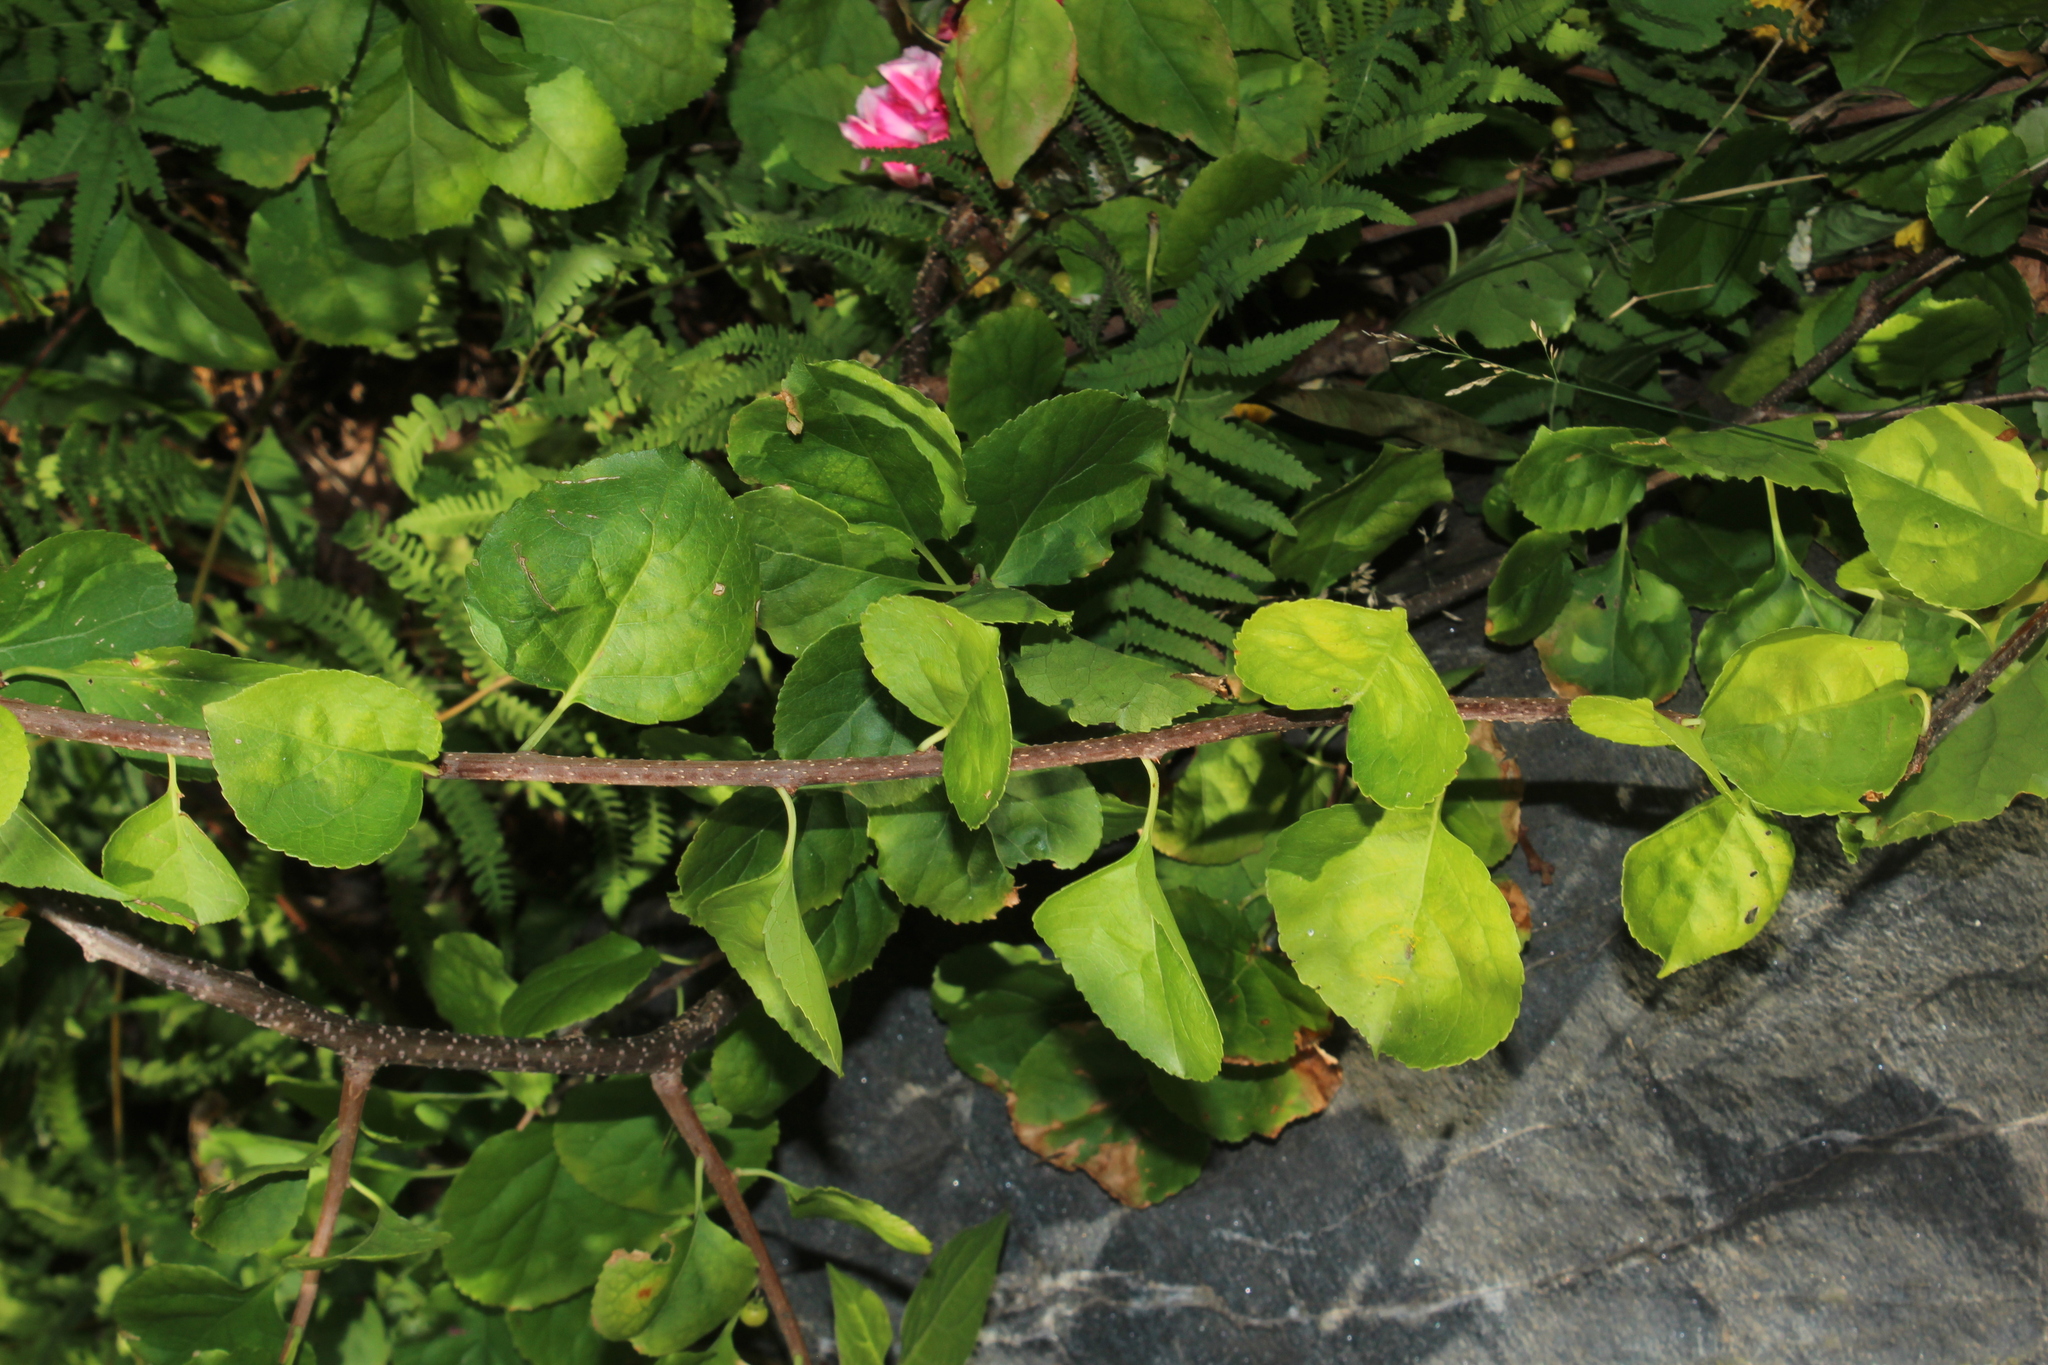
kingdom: Plantae
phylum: Tracheophyta
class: Magnoliopsida
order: Celastrales
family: Celastraceae
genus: Celastrus
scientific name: Celastrus orbiculatus
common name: Oriental bittersweet
